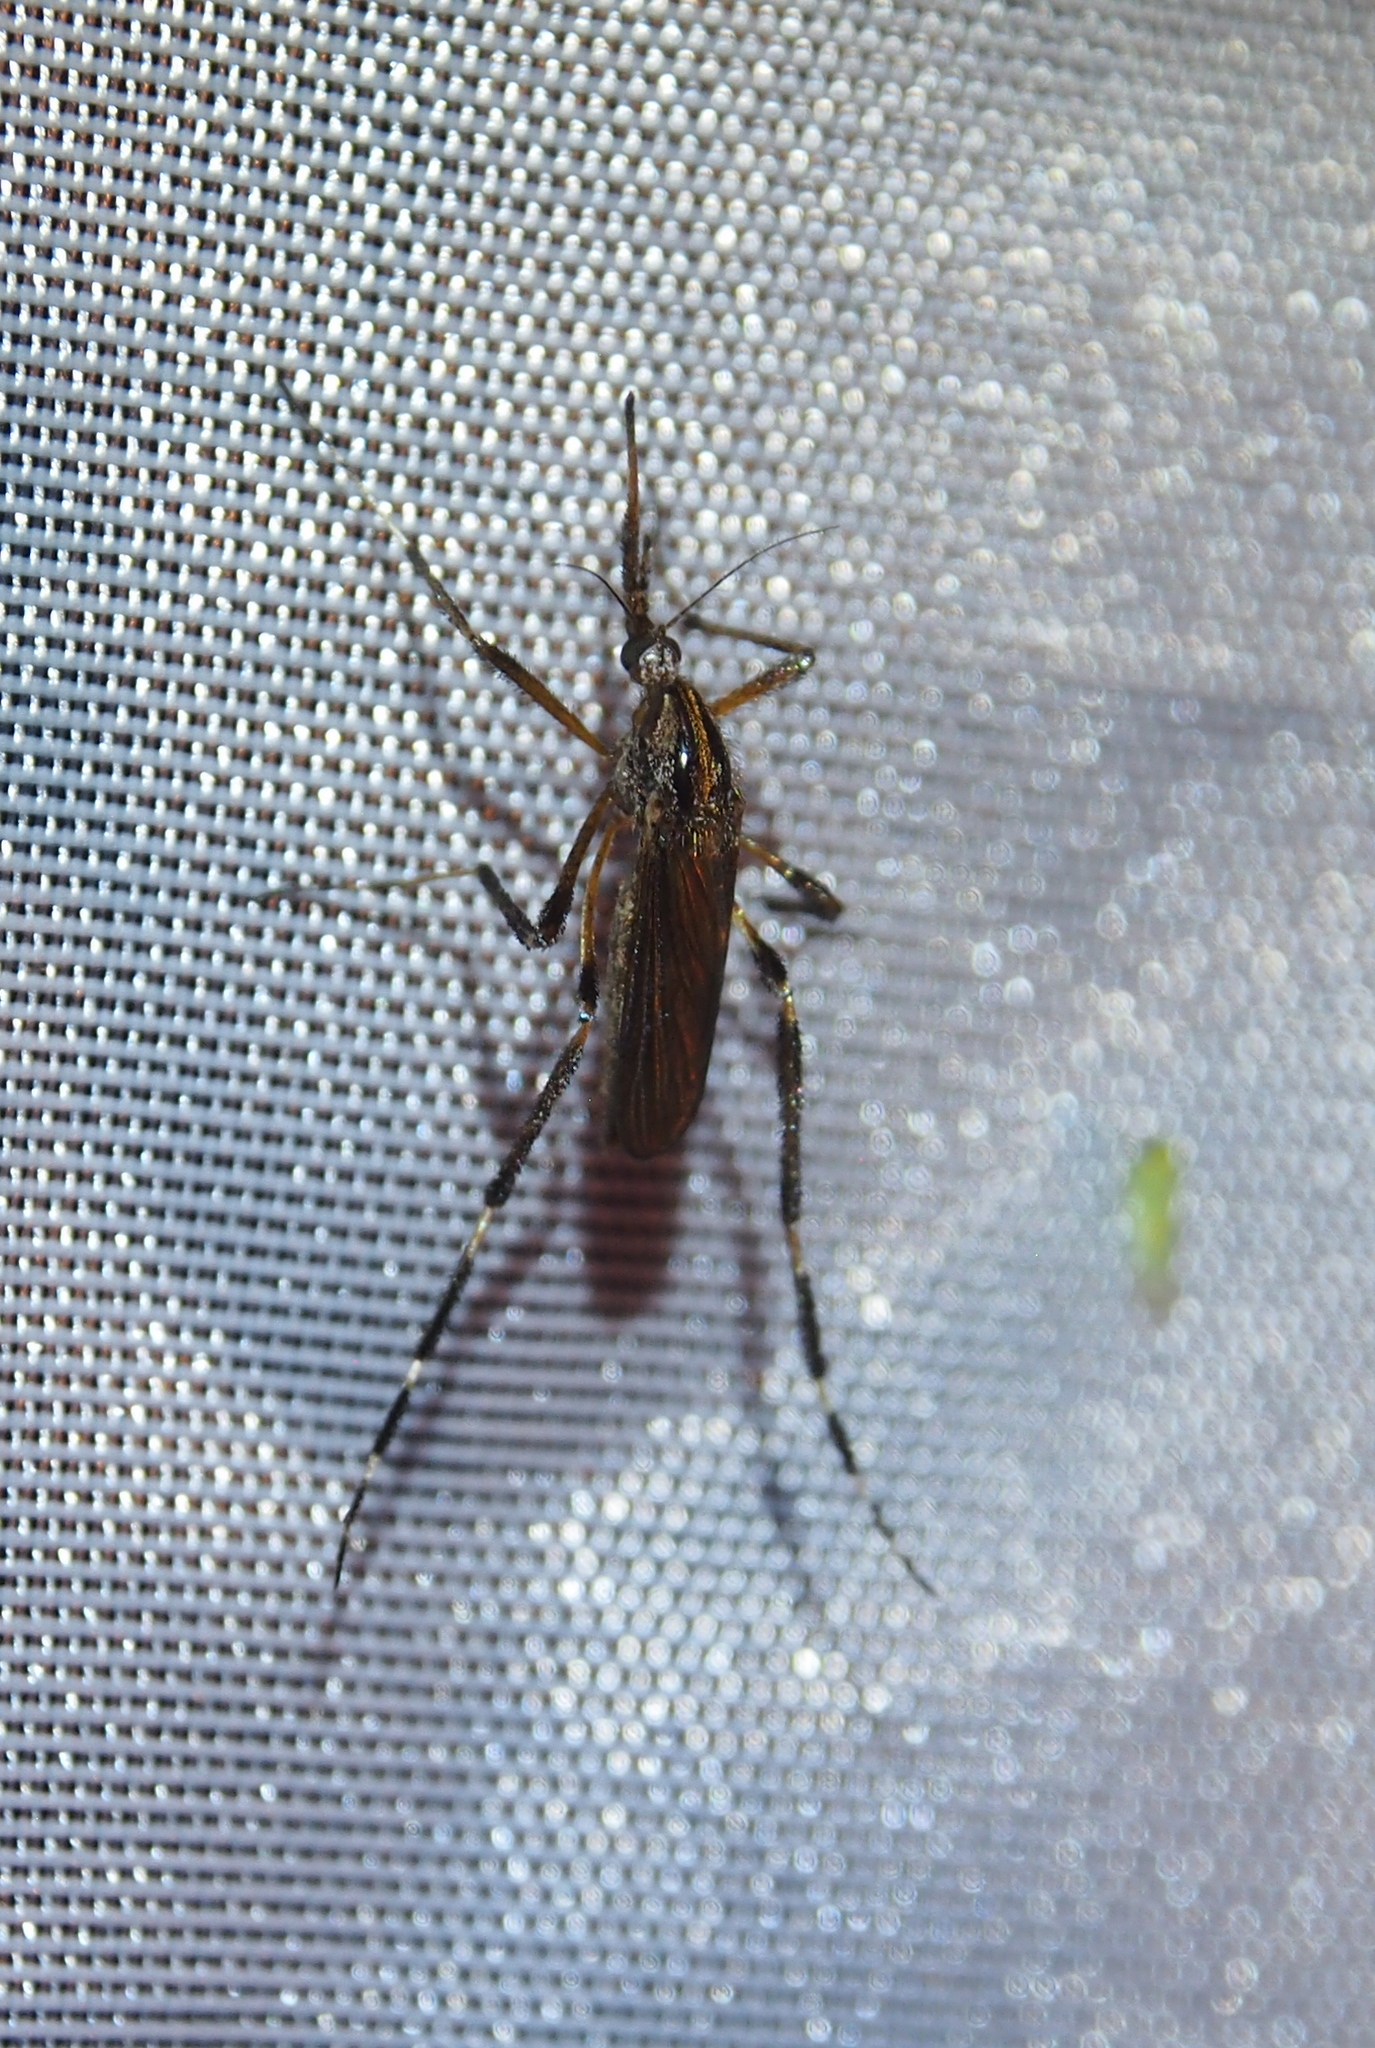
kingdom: Animalia
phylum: Arthropoda
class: Insecta
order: Diptera
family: Culicidae
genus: Psorophora
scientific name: Psorophora ciliata
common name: Gallinipper
